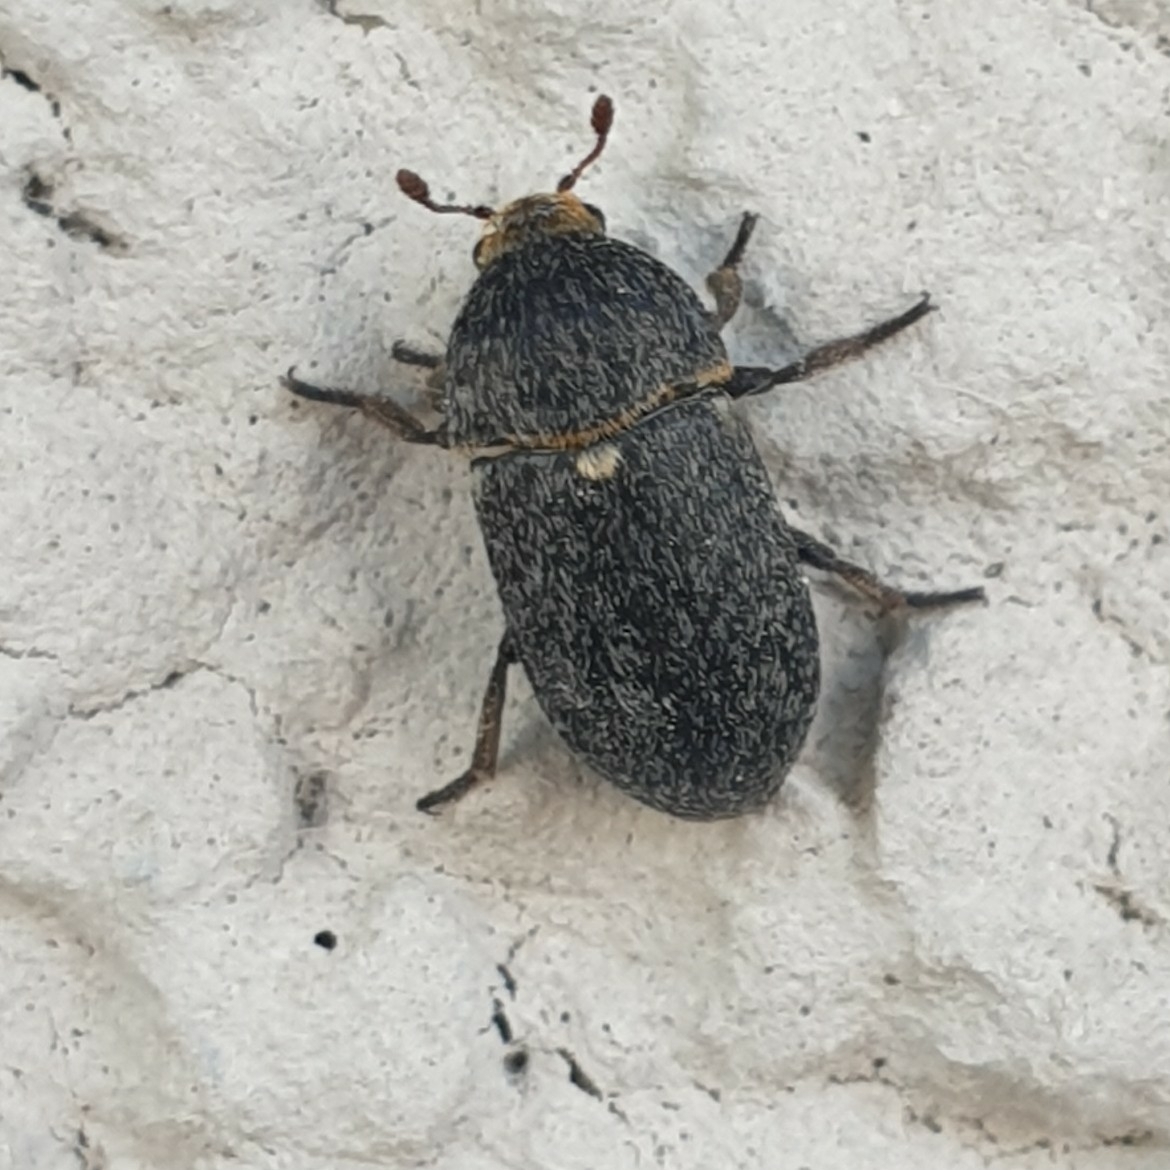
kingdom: Animalia
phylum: Arthropoda
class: Insecta
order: Coleoptera
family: Dermestidae
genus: Dermestes
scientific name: Dermestes laniarius
